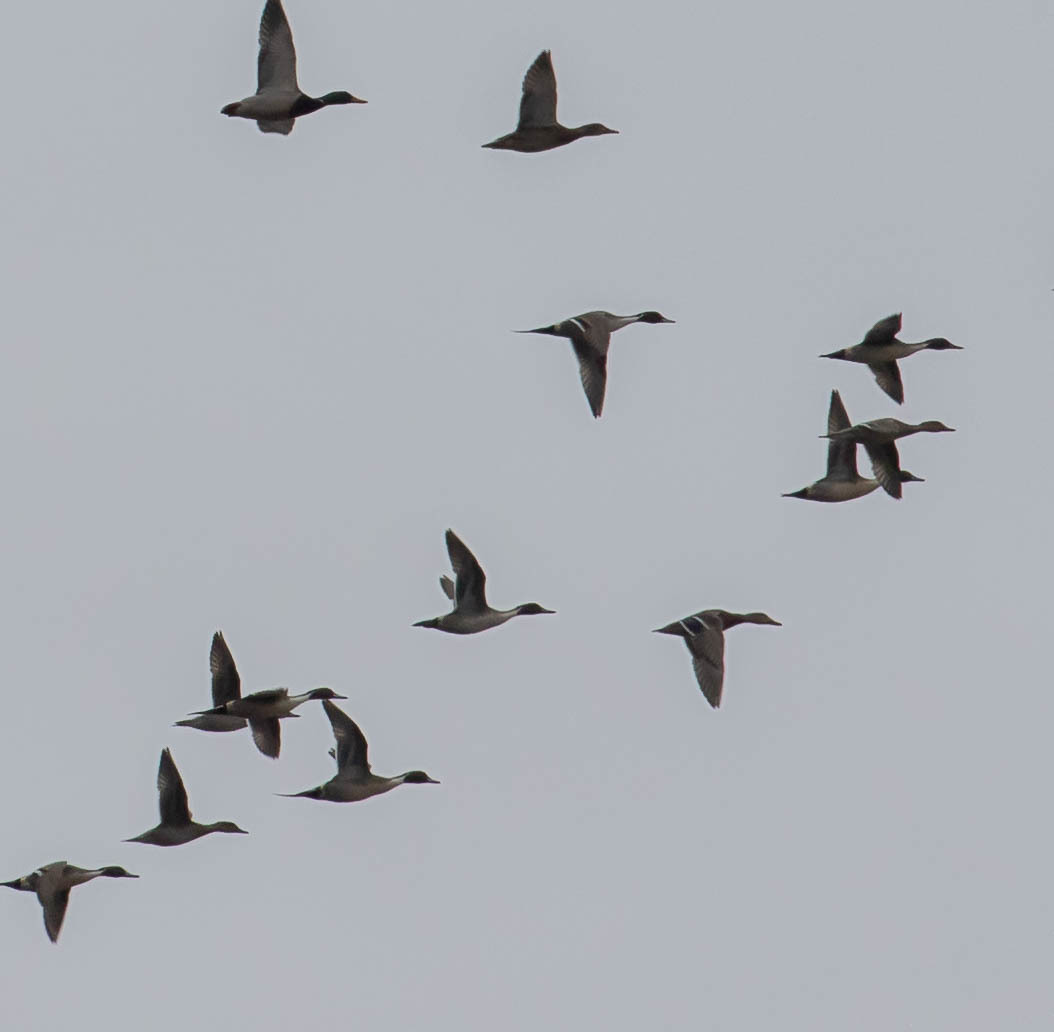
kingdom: Animalia
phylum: Chordata
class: Aves
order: Anseriformes
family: Anatidae
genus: Anas
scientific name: Anas acuta
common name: Northern pintail
